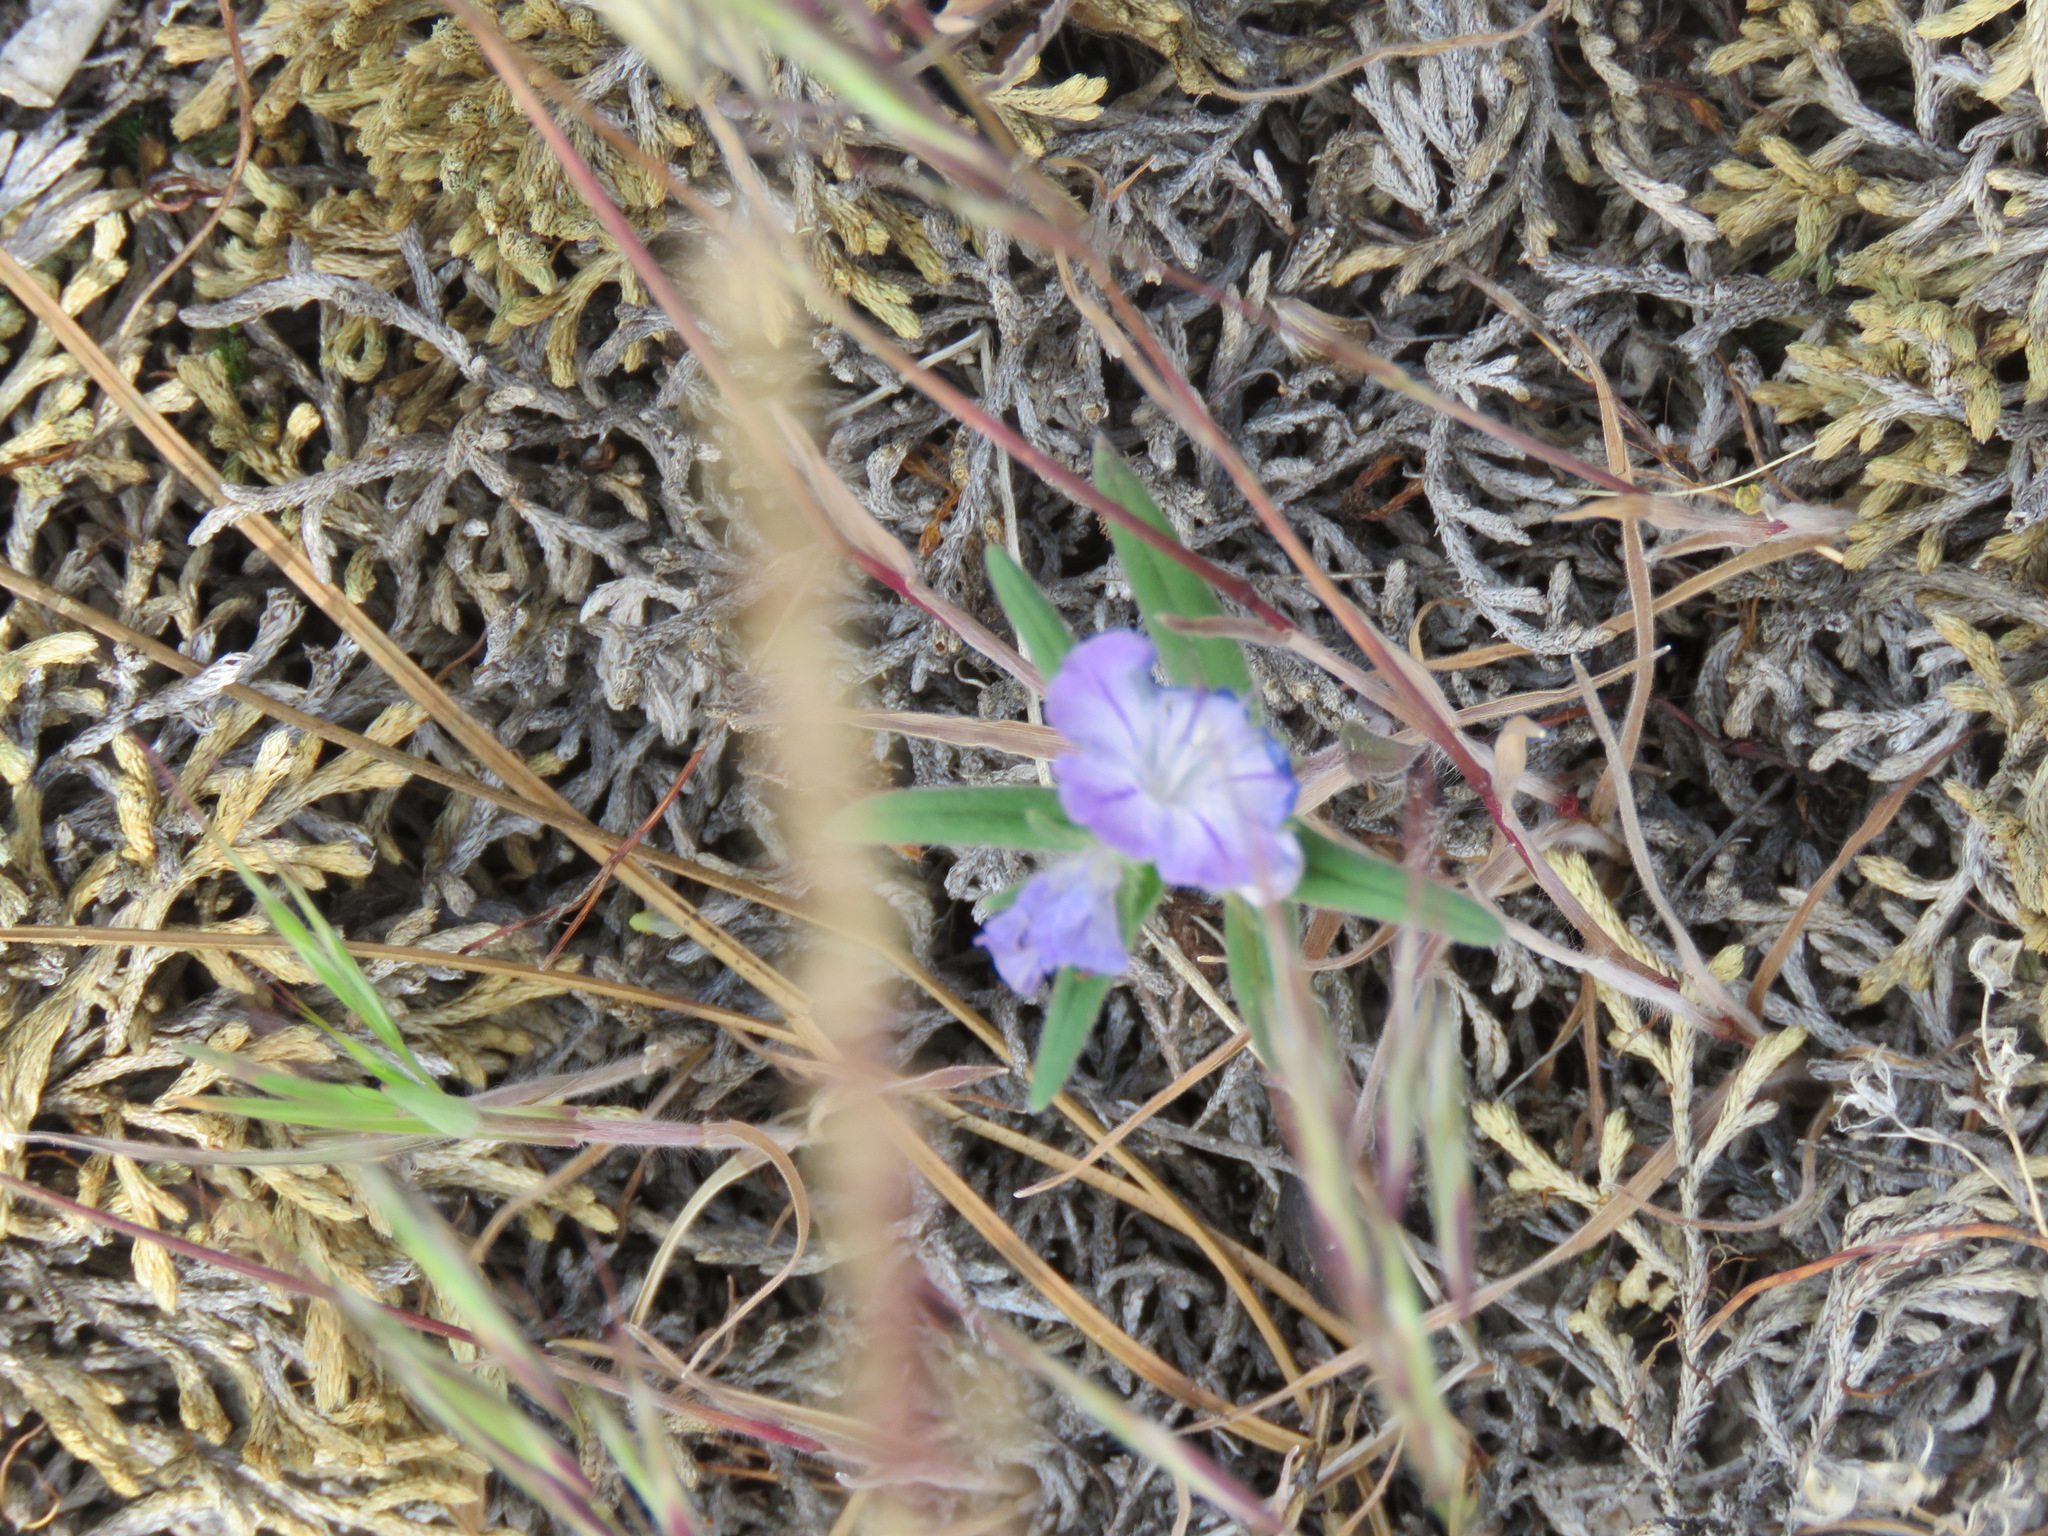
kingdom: Plantae
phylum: Tracheophyta
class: Magnoliopsida
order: Boraginales
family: Hydrophyllaceae
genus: Phacelia
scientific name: Phacelia linearis
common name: Linear-leaved phacelia
